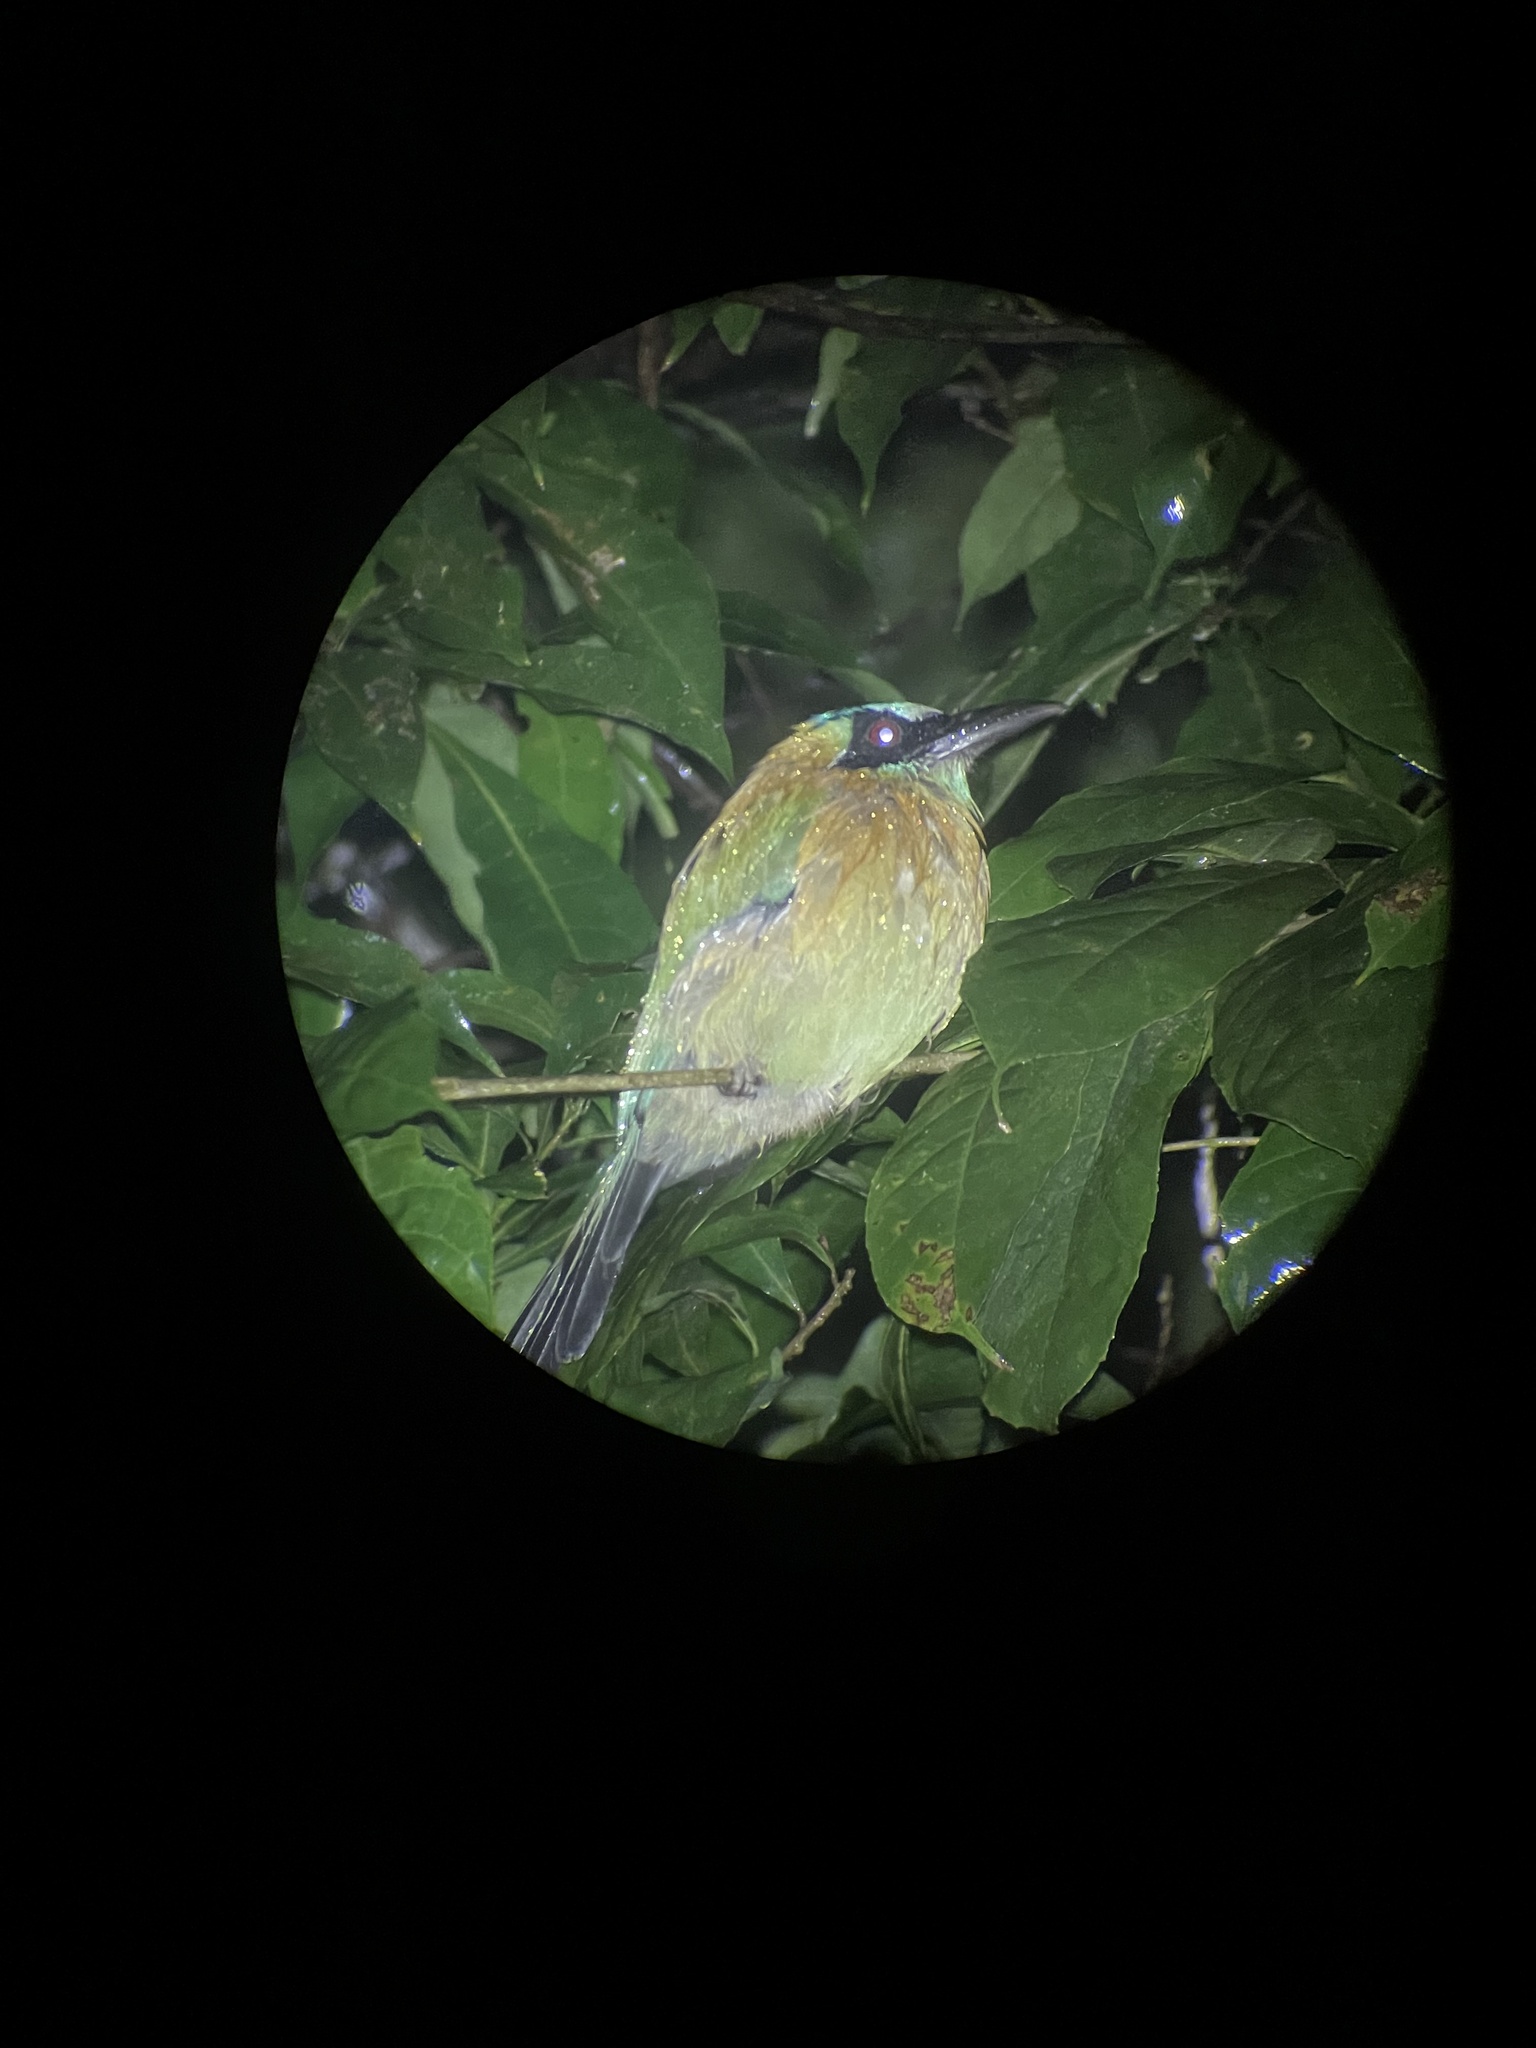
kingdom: Animalia
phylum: Chordata
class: Aves
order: Coraciiformes
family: Momotidae
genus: Momotus
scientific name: Momotus lessonii
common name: Lesson's motmot
